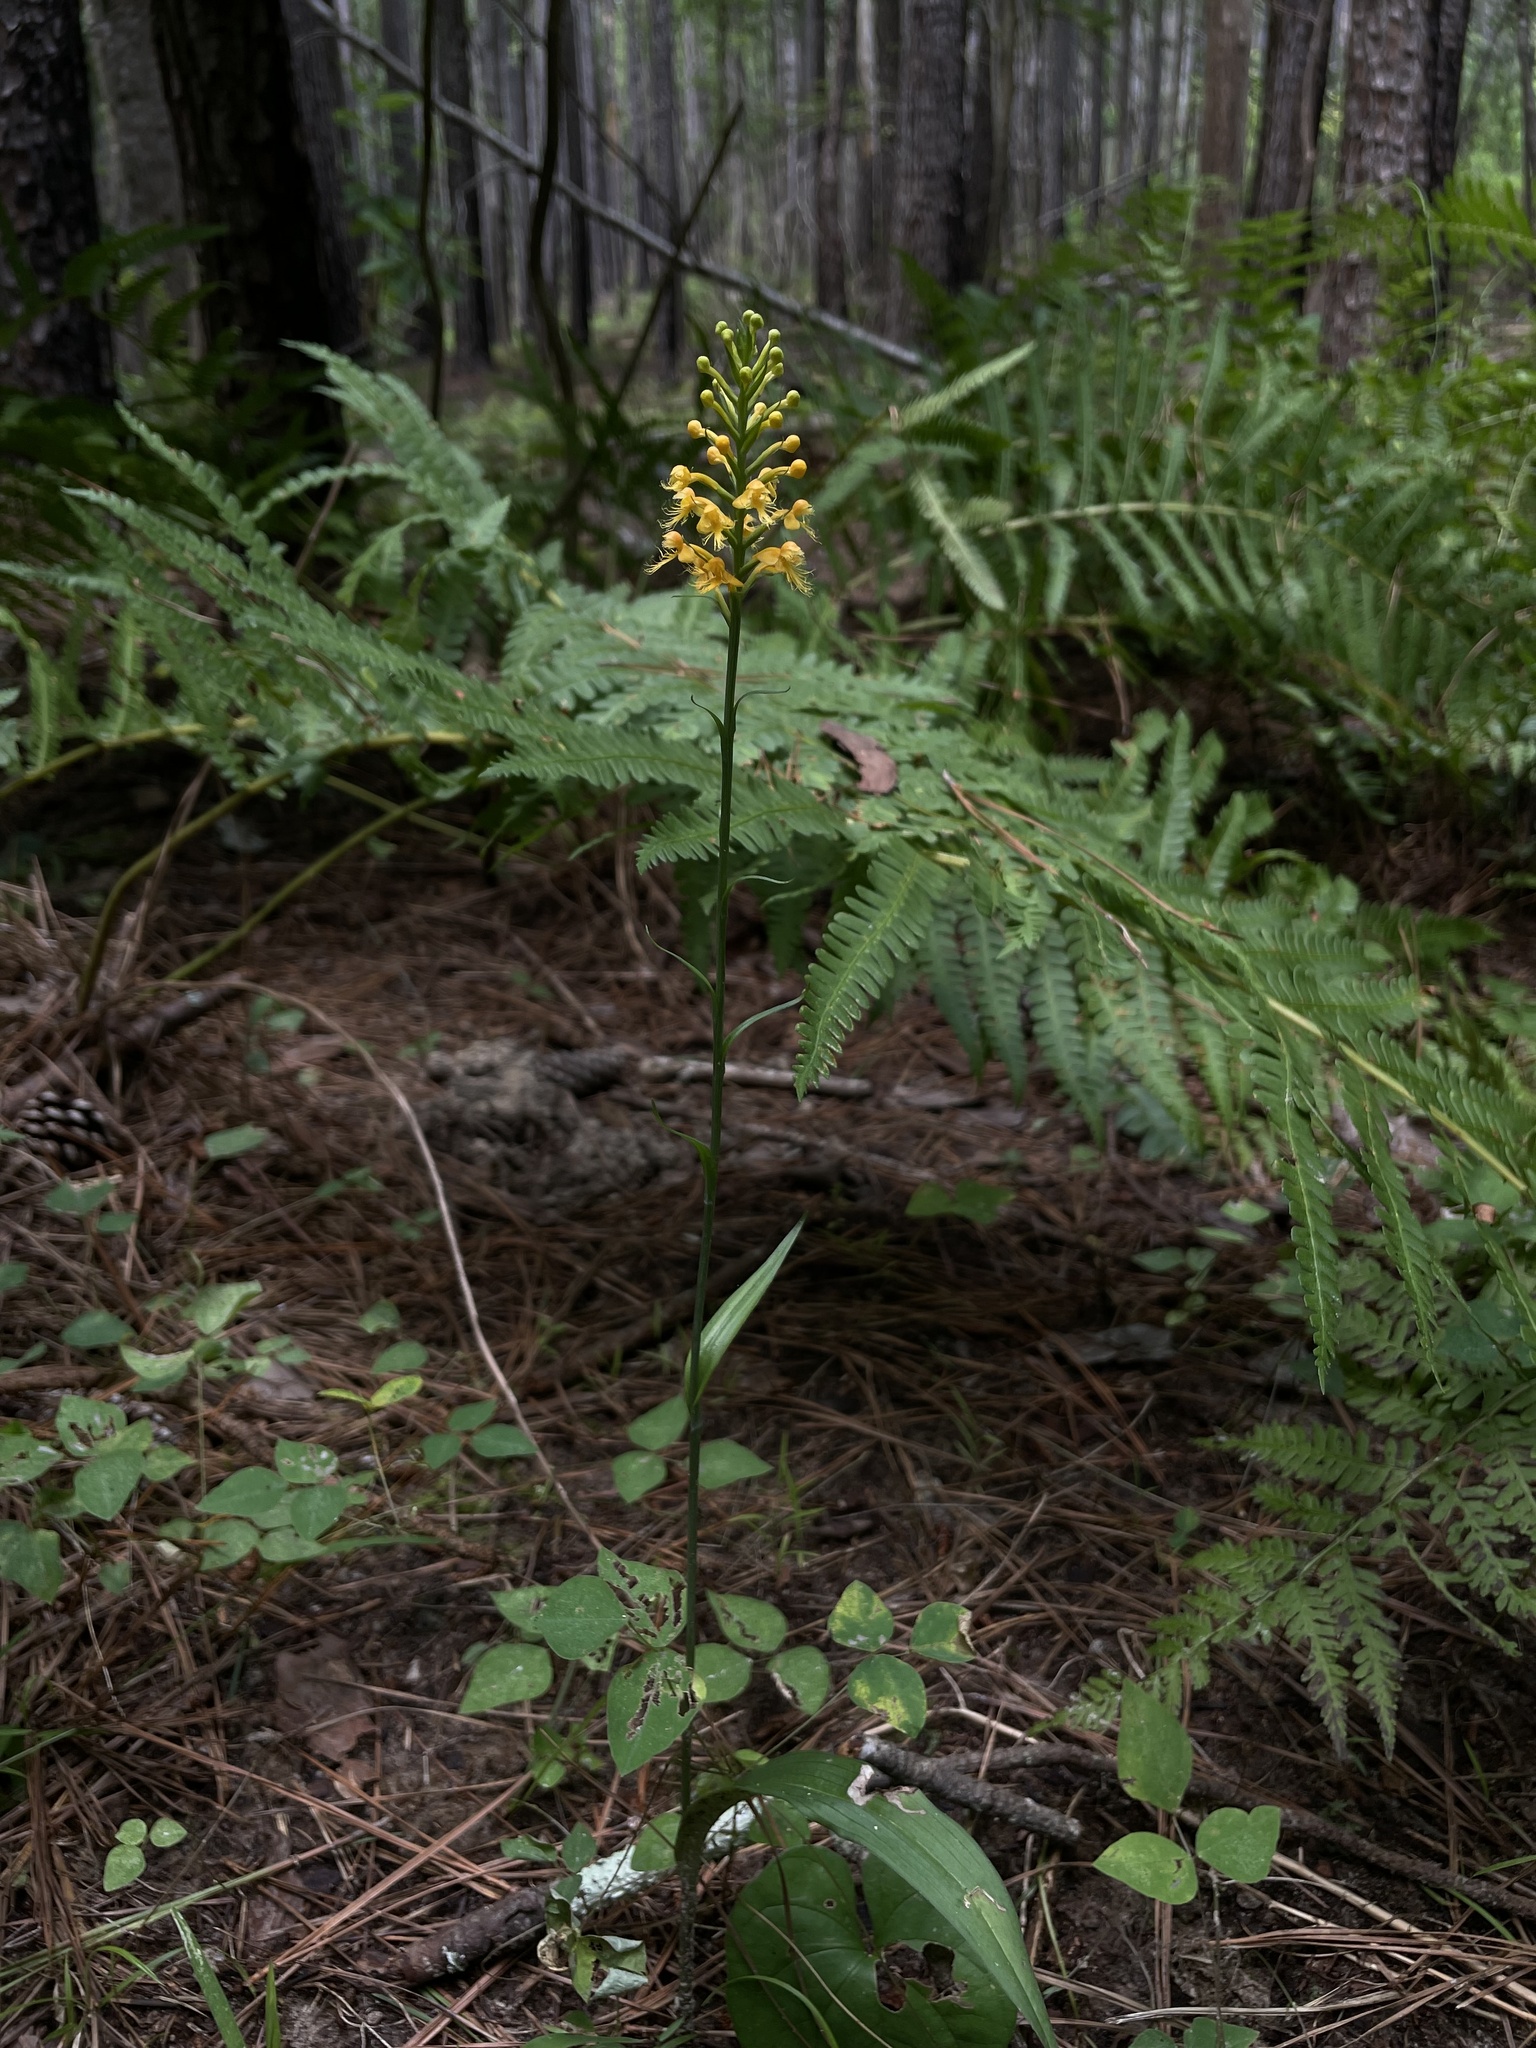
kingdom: Plantae
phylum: Tracheophyta
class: Liliopsida
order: Asparagales
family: Orchidaceae
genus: Platanthera
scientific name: Platanthera cristata
